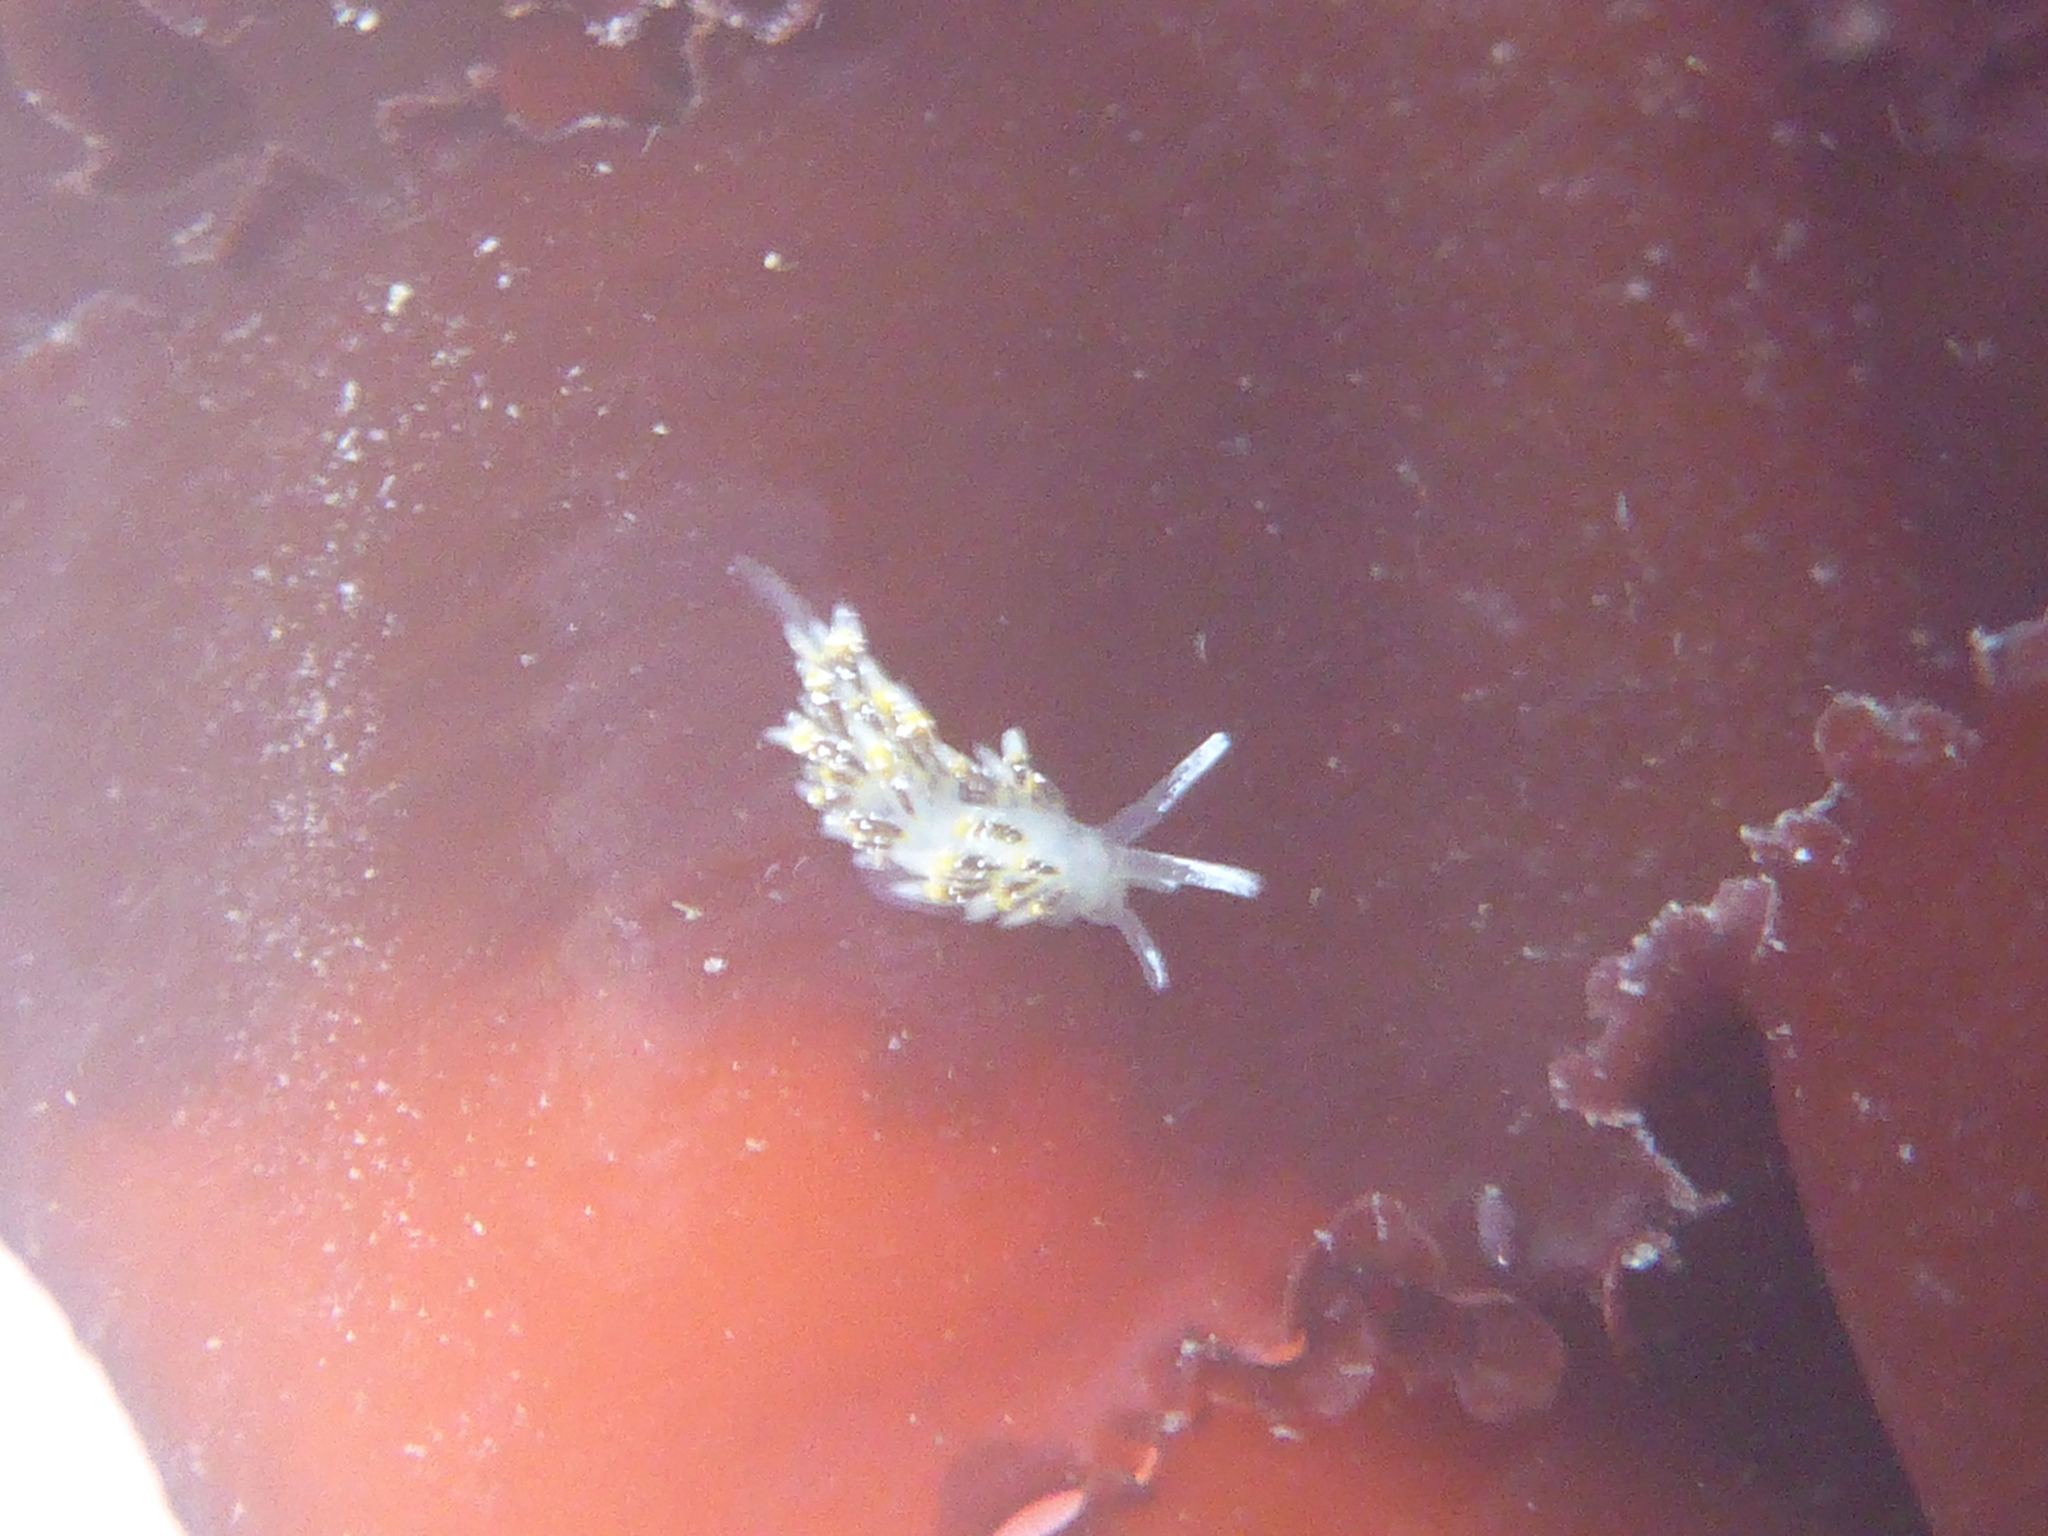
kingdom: Animalia
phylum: Mollusca
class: Gastropoda
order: Nudibranchia
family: Trinchesiidae
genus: Zelentia
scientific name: Zelentia fulgens
